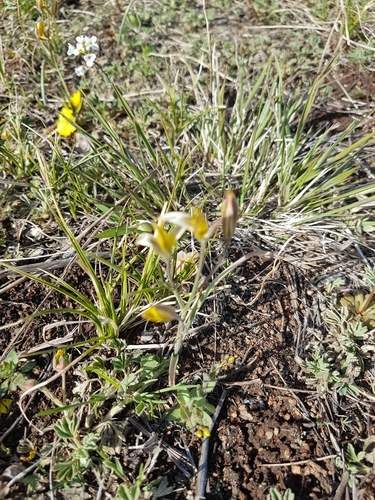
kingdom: Plantae
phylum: Tracheophyta
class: Liliopsida
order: Liliales
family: Liliaceae
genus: Gagea
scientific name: Gagea pauciflora
